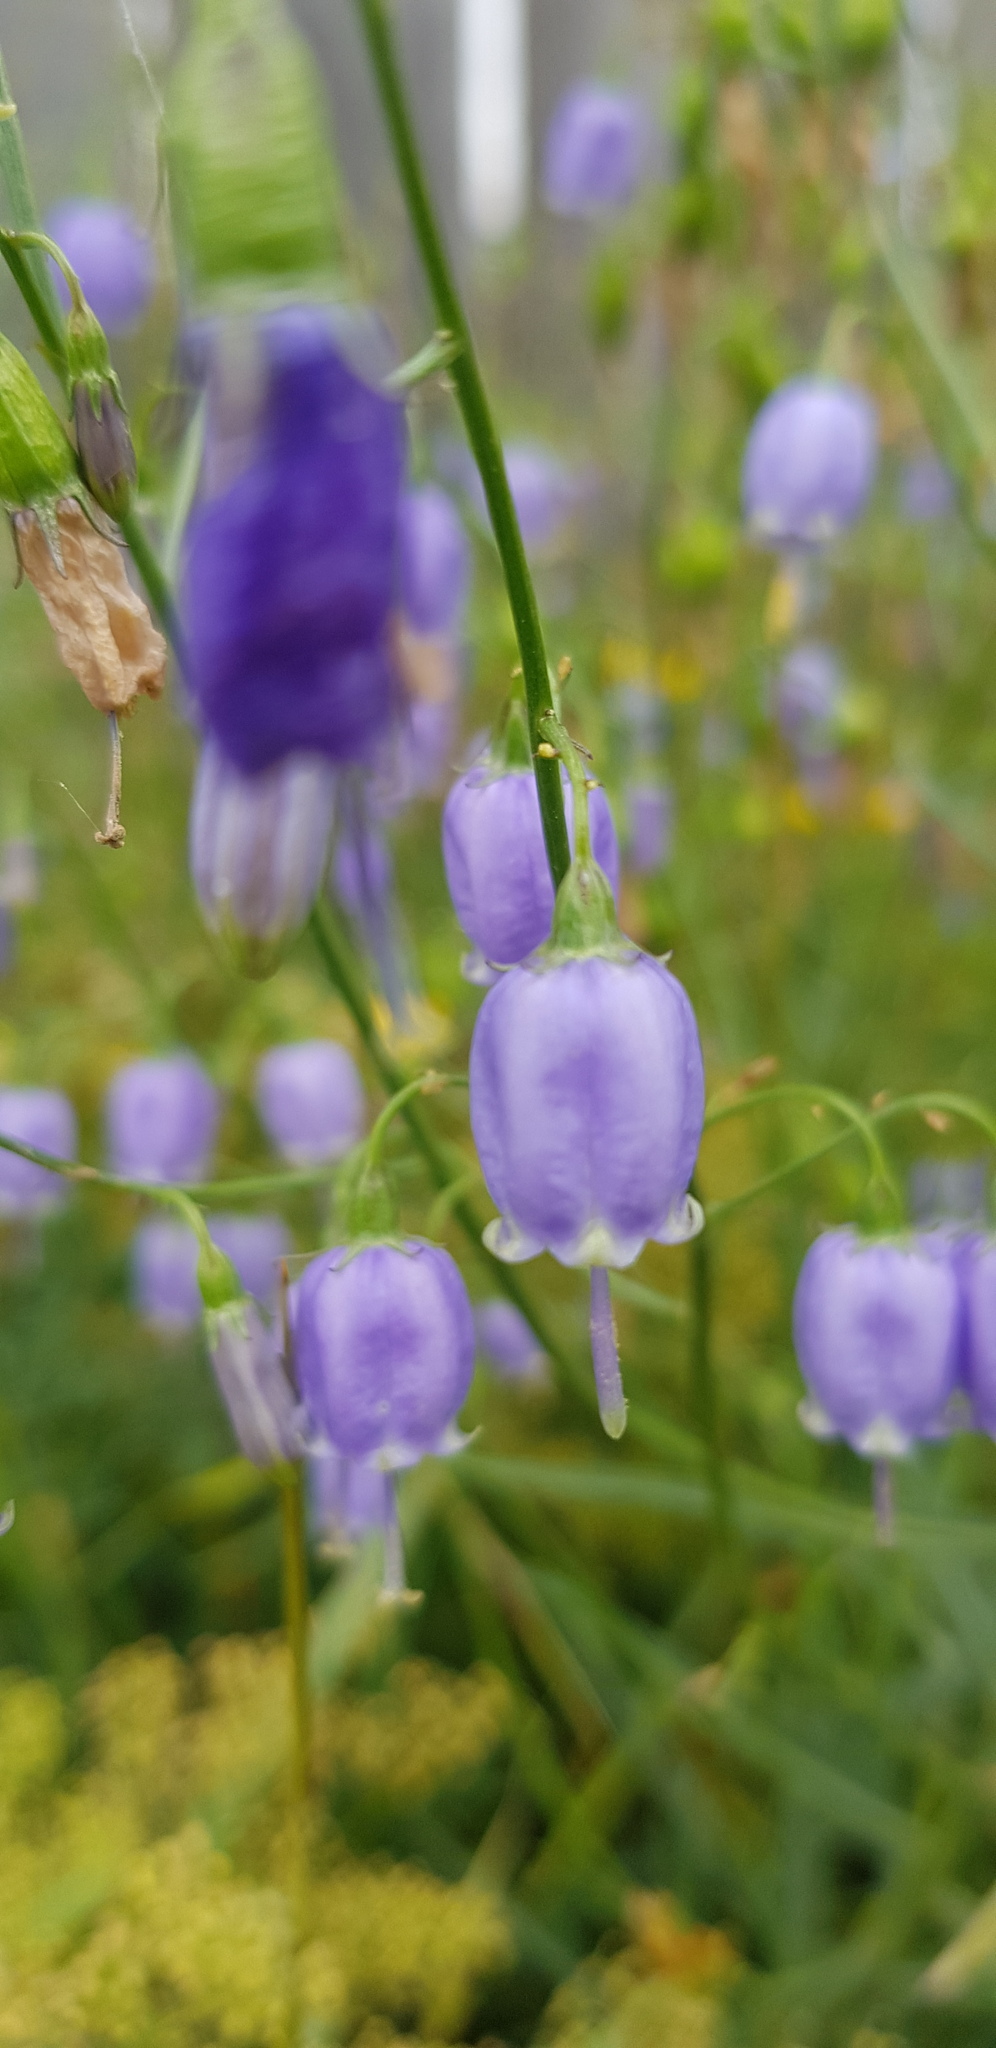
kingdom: Plantae
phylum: Tracheophyta
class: Magnoliopsida
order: Asterales
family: Campanulaceae
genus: Adenophora
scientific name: Adenophora stenanthina
